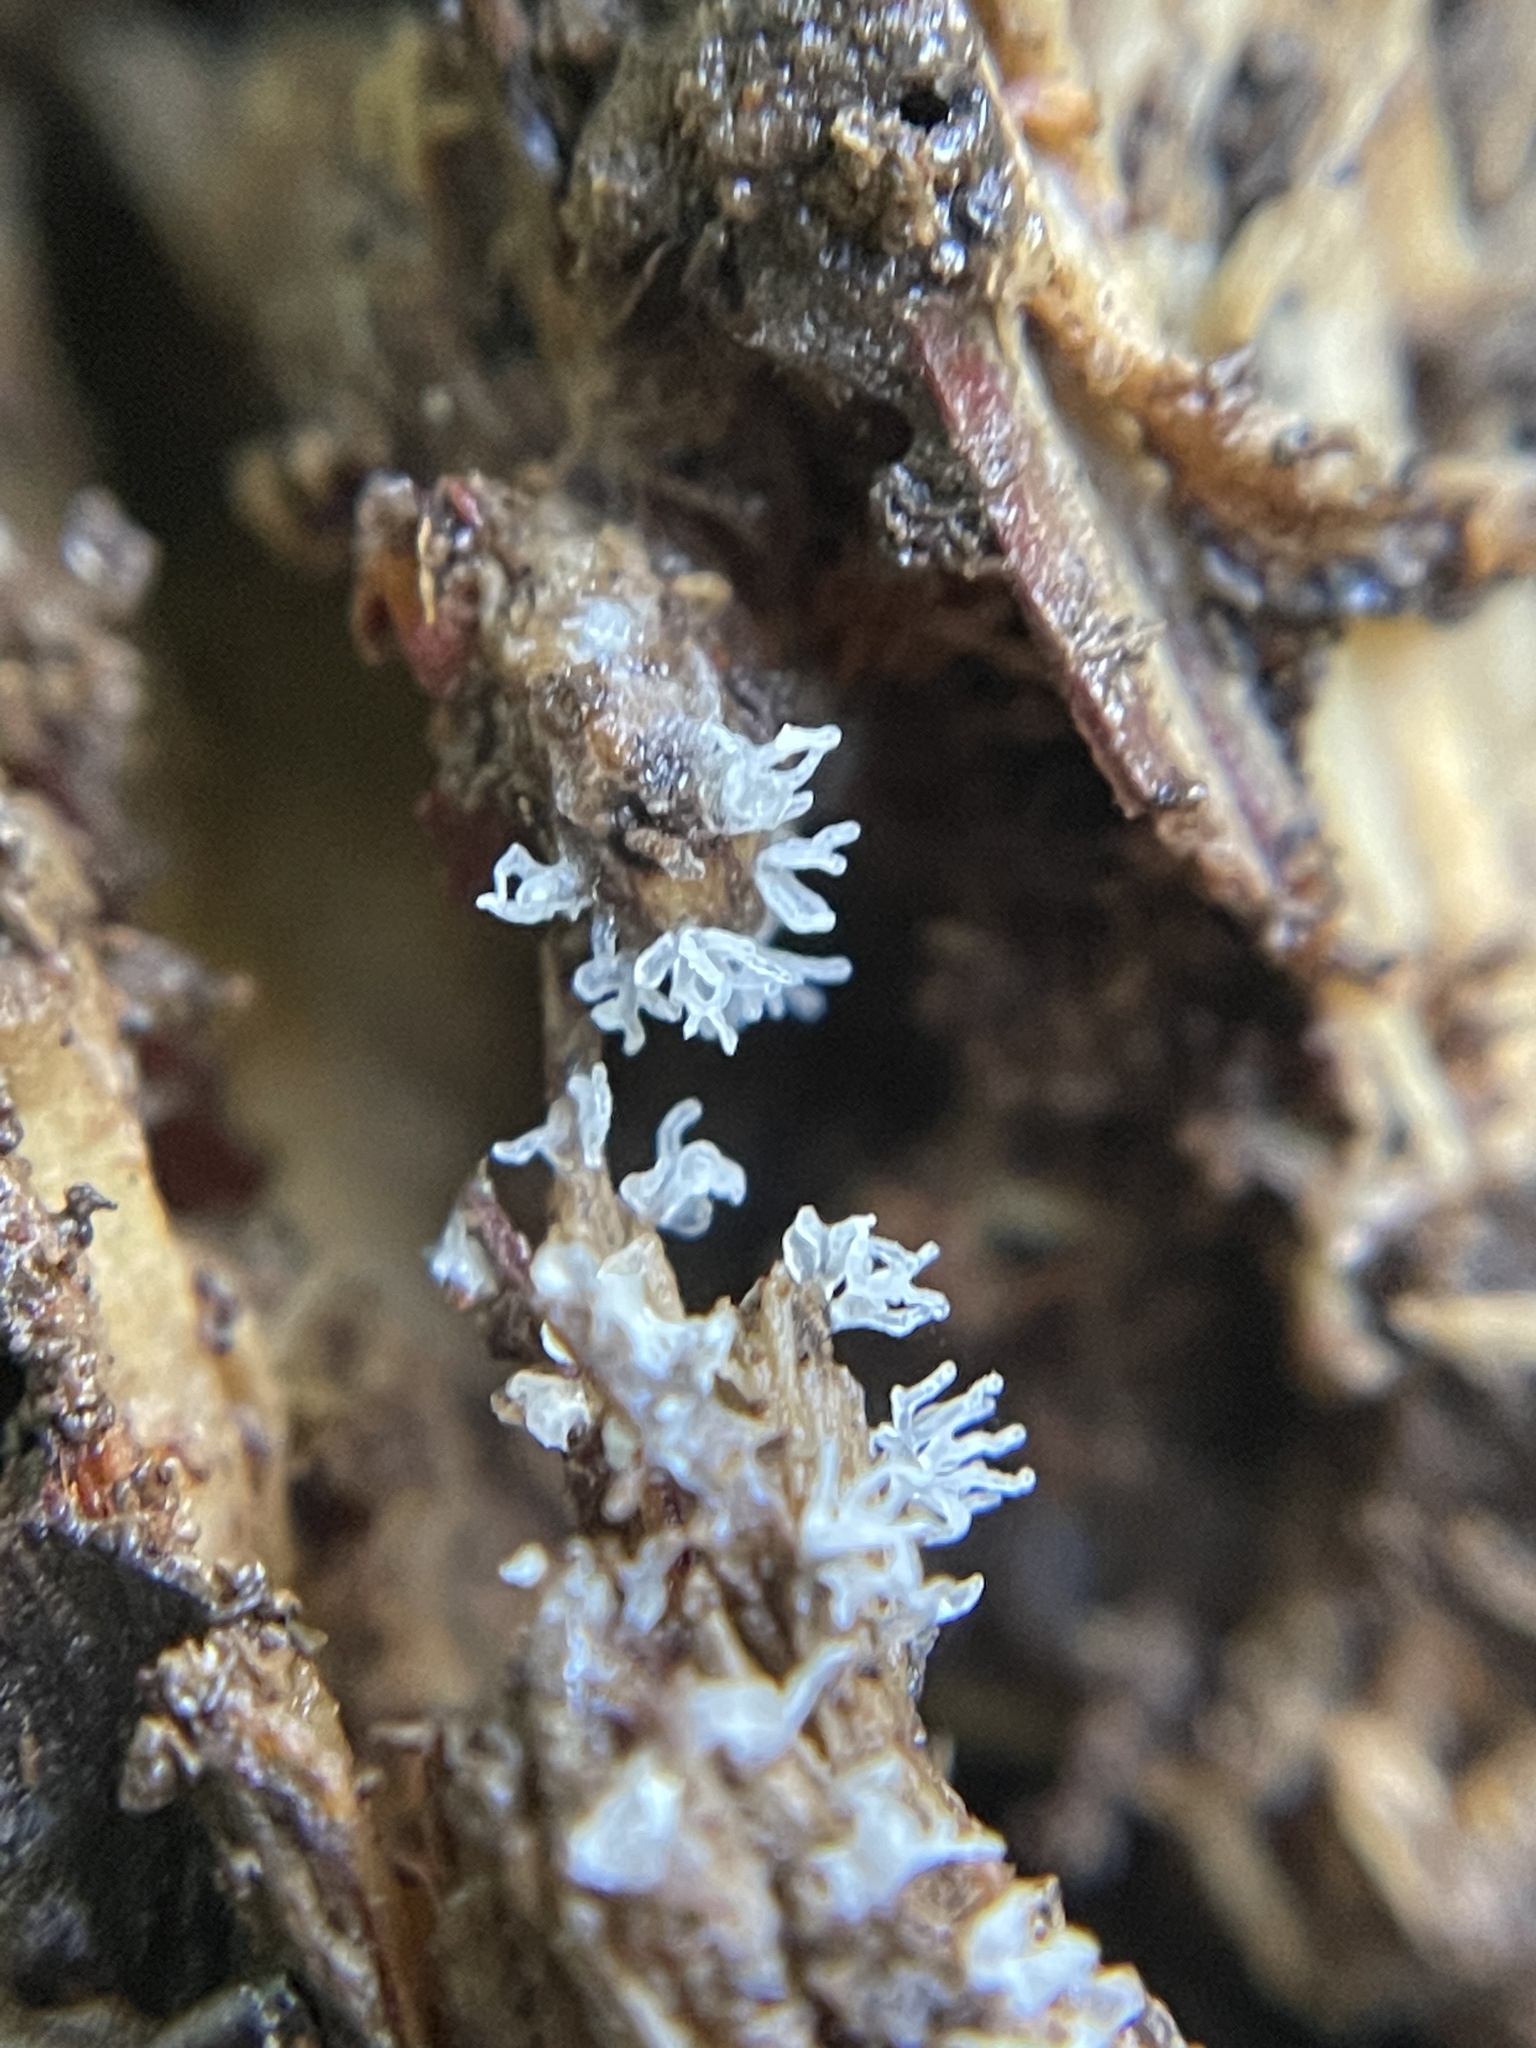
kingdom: Protozoa
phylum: Mycetozoa
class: Protosteliomycetes
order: Ceratiomyxales
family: Ceratiomyxaceae
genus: Ceratiomyxa
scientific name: Ceratiomyxa fruticulosa
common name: Honeycomb coral slime mold
